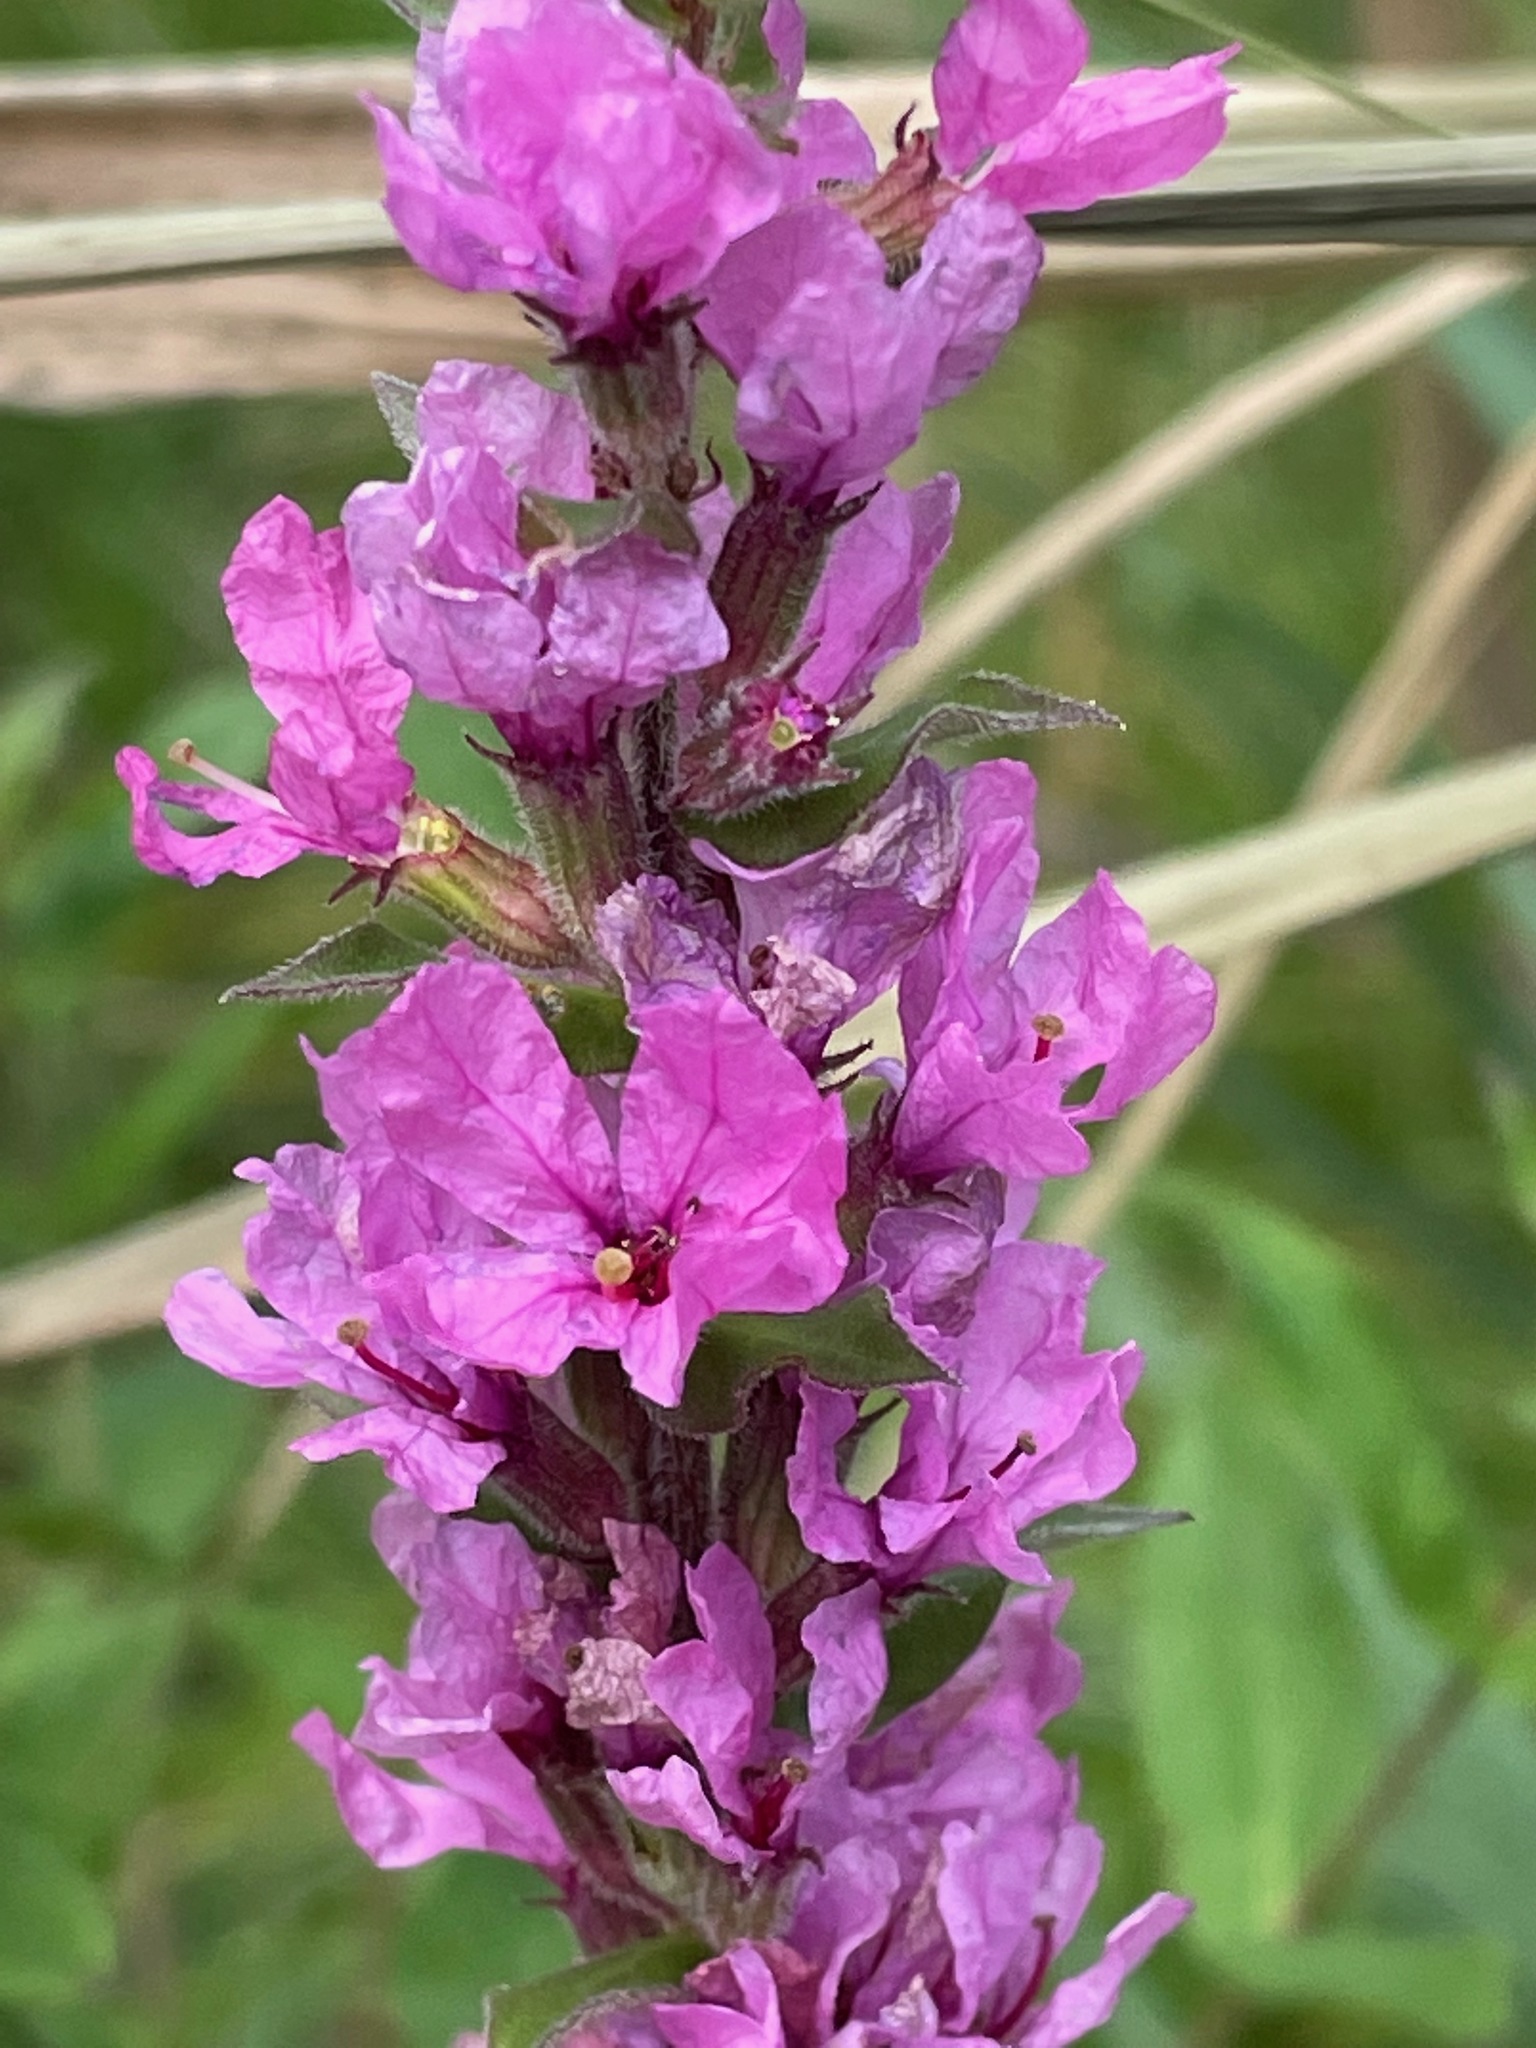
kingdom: Plantae
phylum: Tracheophyta
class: Magnoliopsida
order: Myrtales
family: Lythraceae
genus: Lythrum
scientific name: Lythrum salicaria
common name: Purple loosestrife
